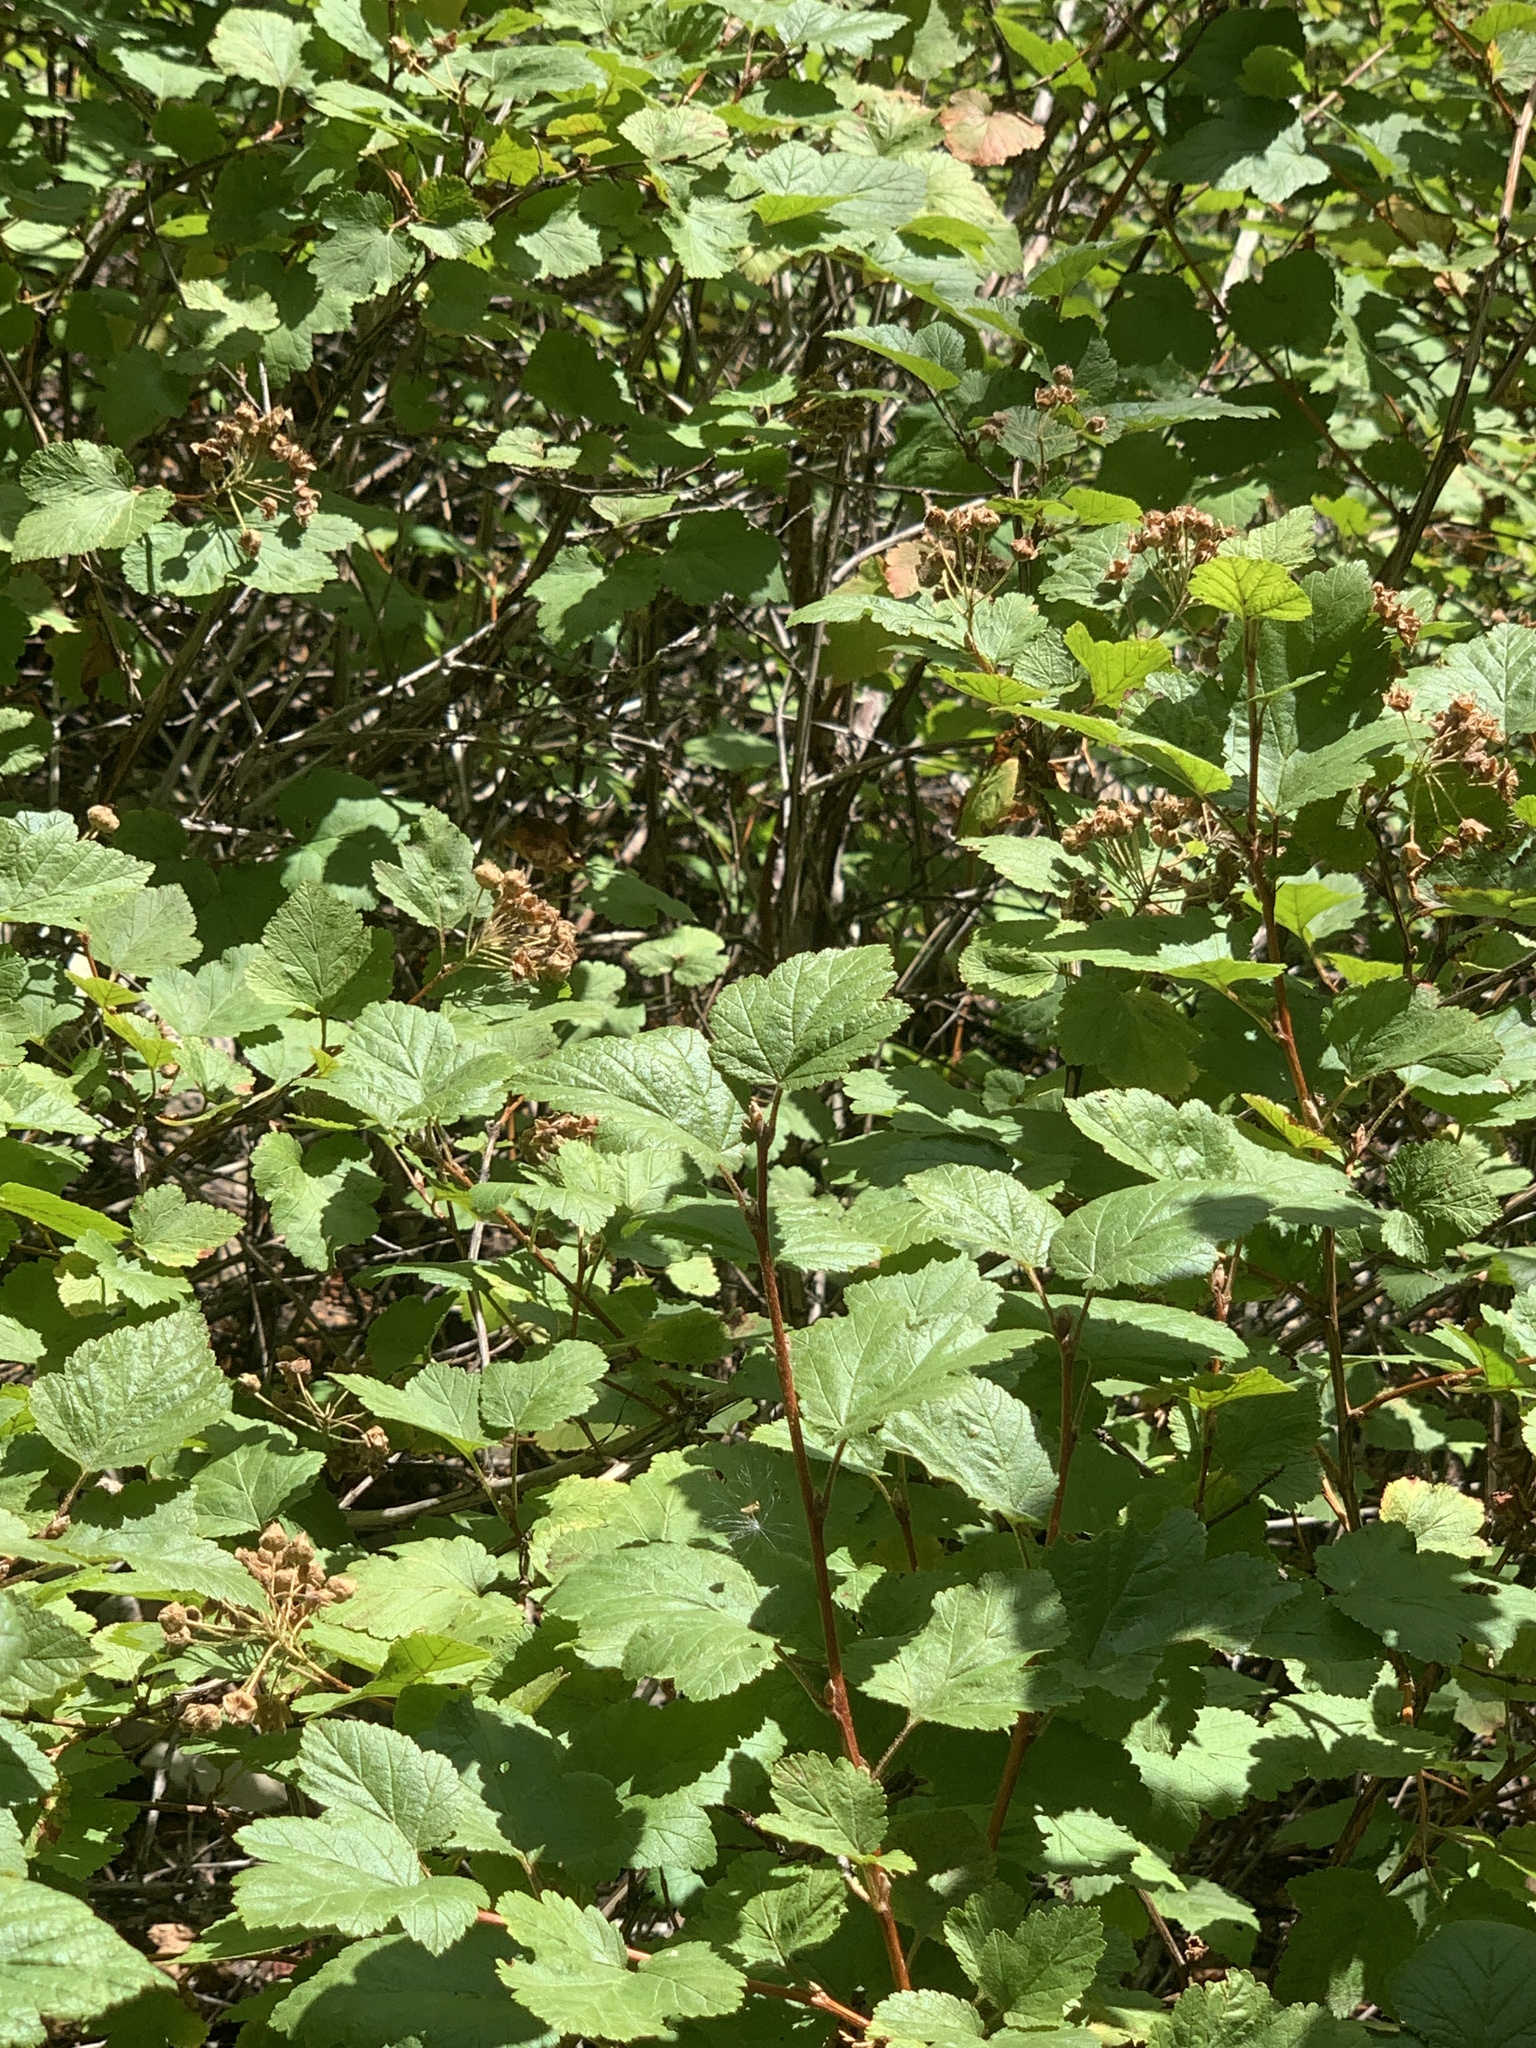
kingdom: Plantae
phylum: Tracheophyta
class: Magnoliopsida
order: Rosales
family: Rosaceae
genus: Physocarpus
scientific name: Physocarpus malvaceus
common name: Mallow ninebark
